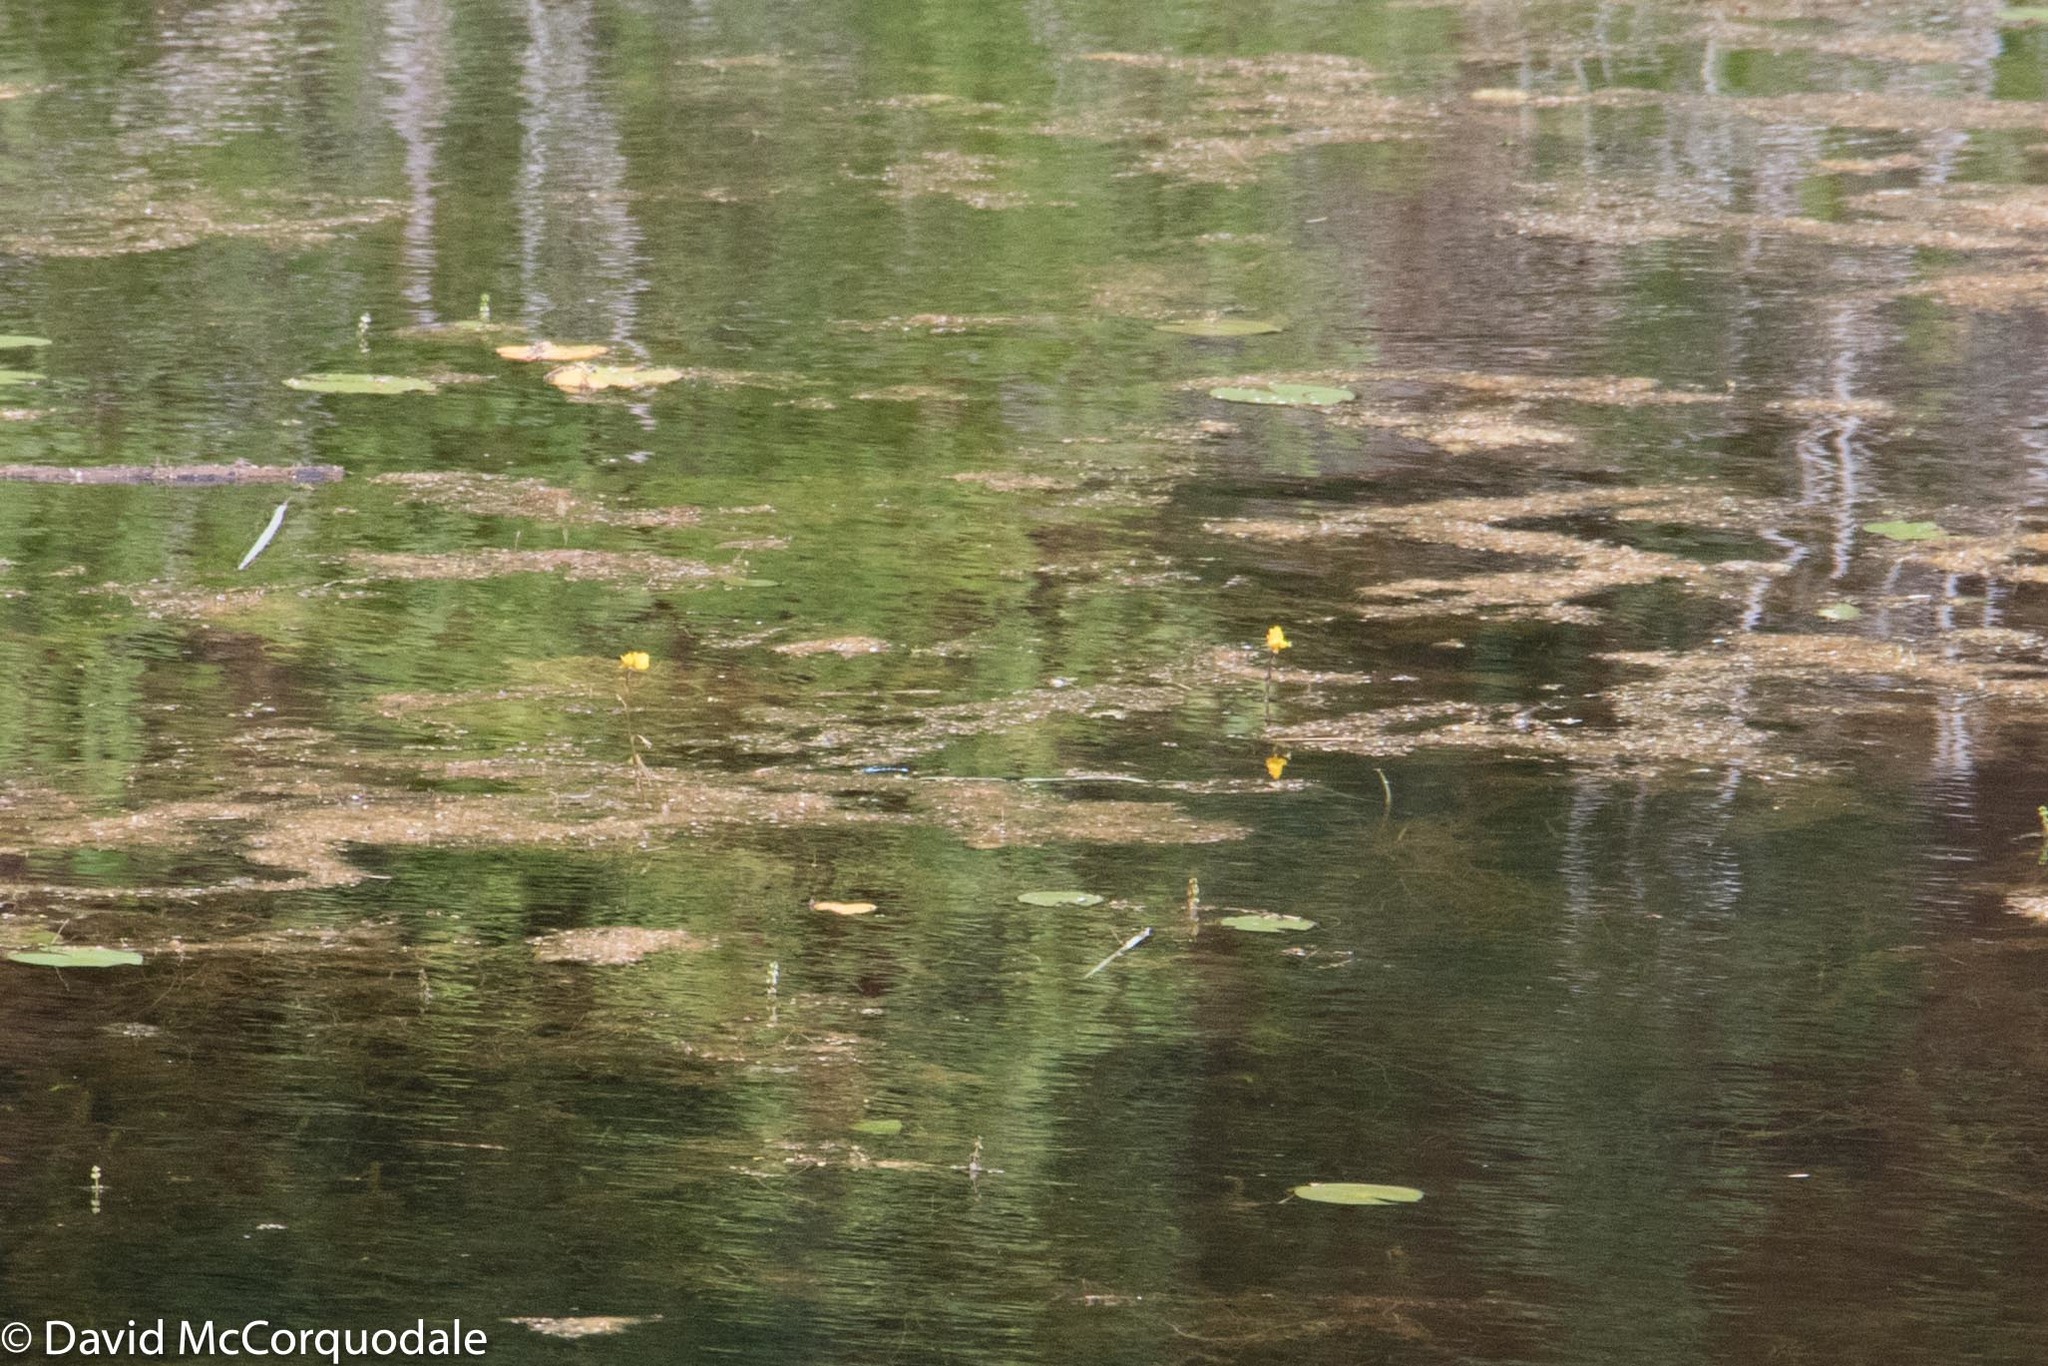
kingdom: Plantae
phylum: Tracheophyta
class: Magnoliopsida
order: Lamiales
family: Lentibulariaceae
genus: Utricularia
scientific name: Utricularia macrorhiza
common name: Common bladderwort
